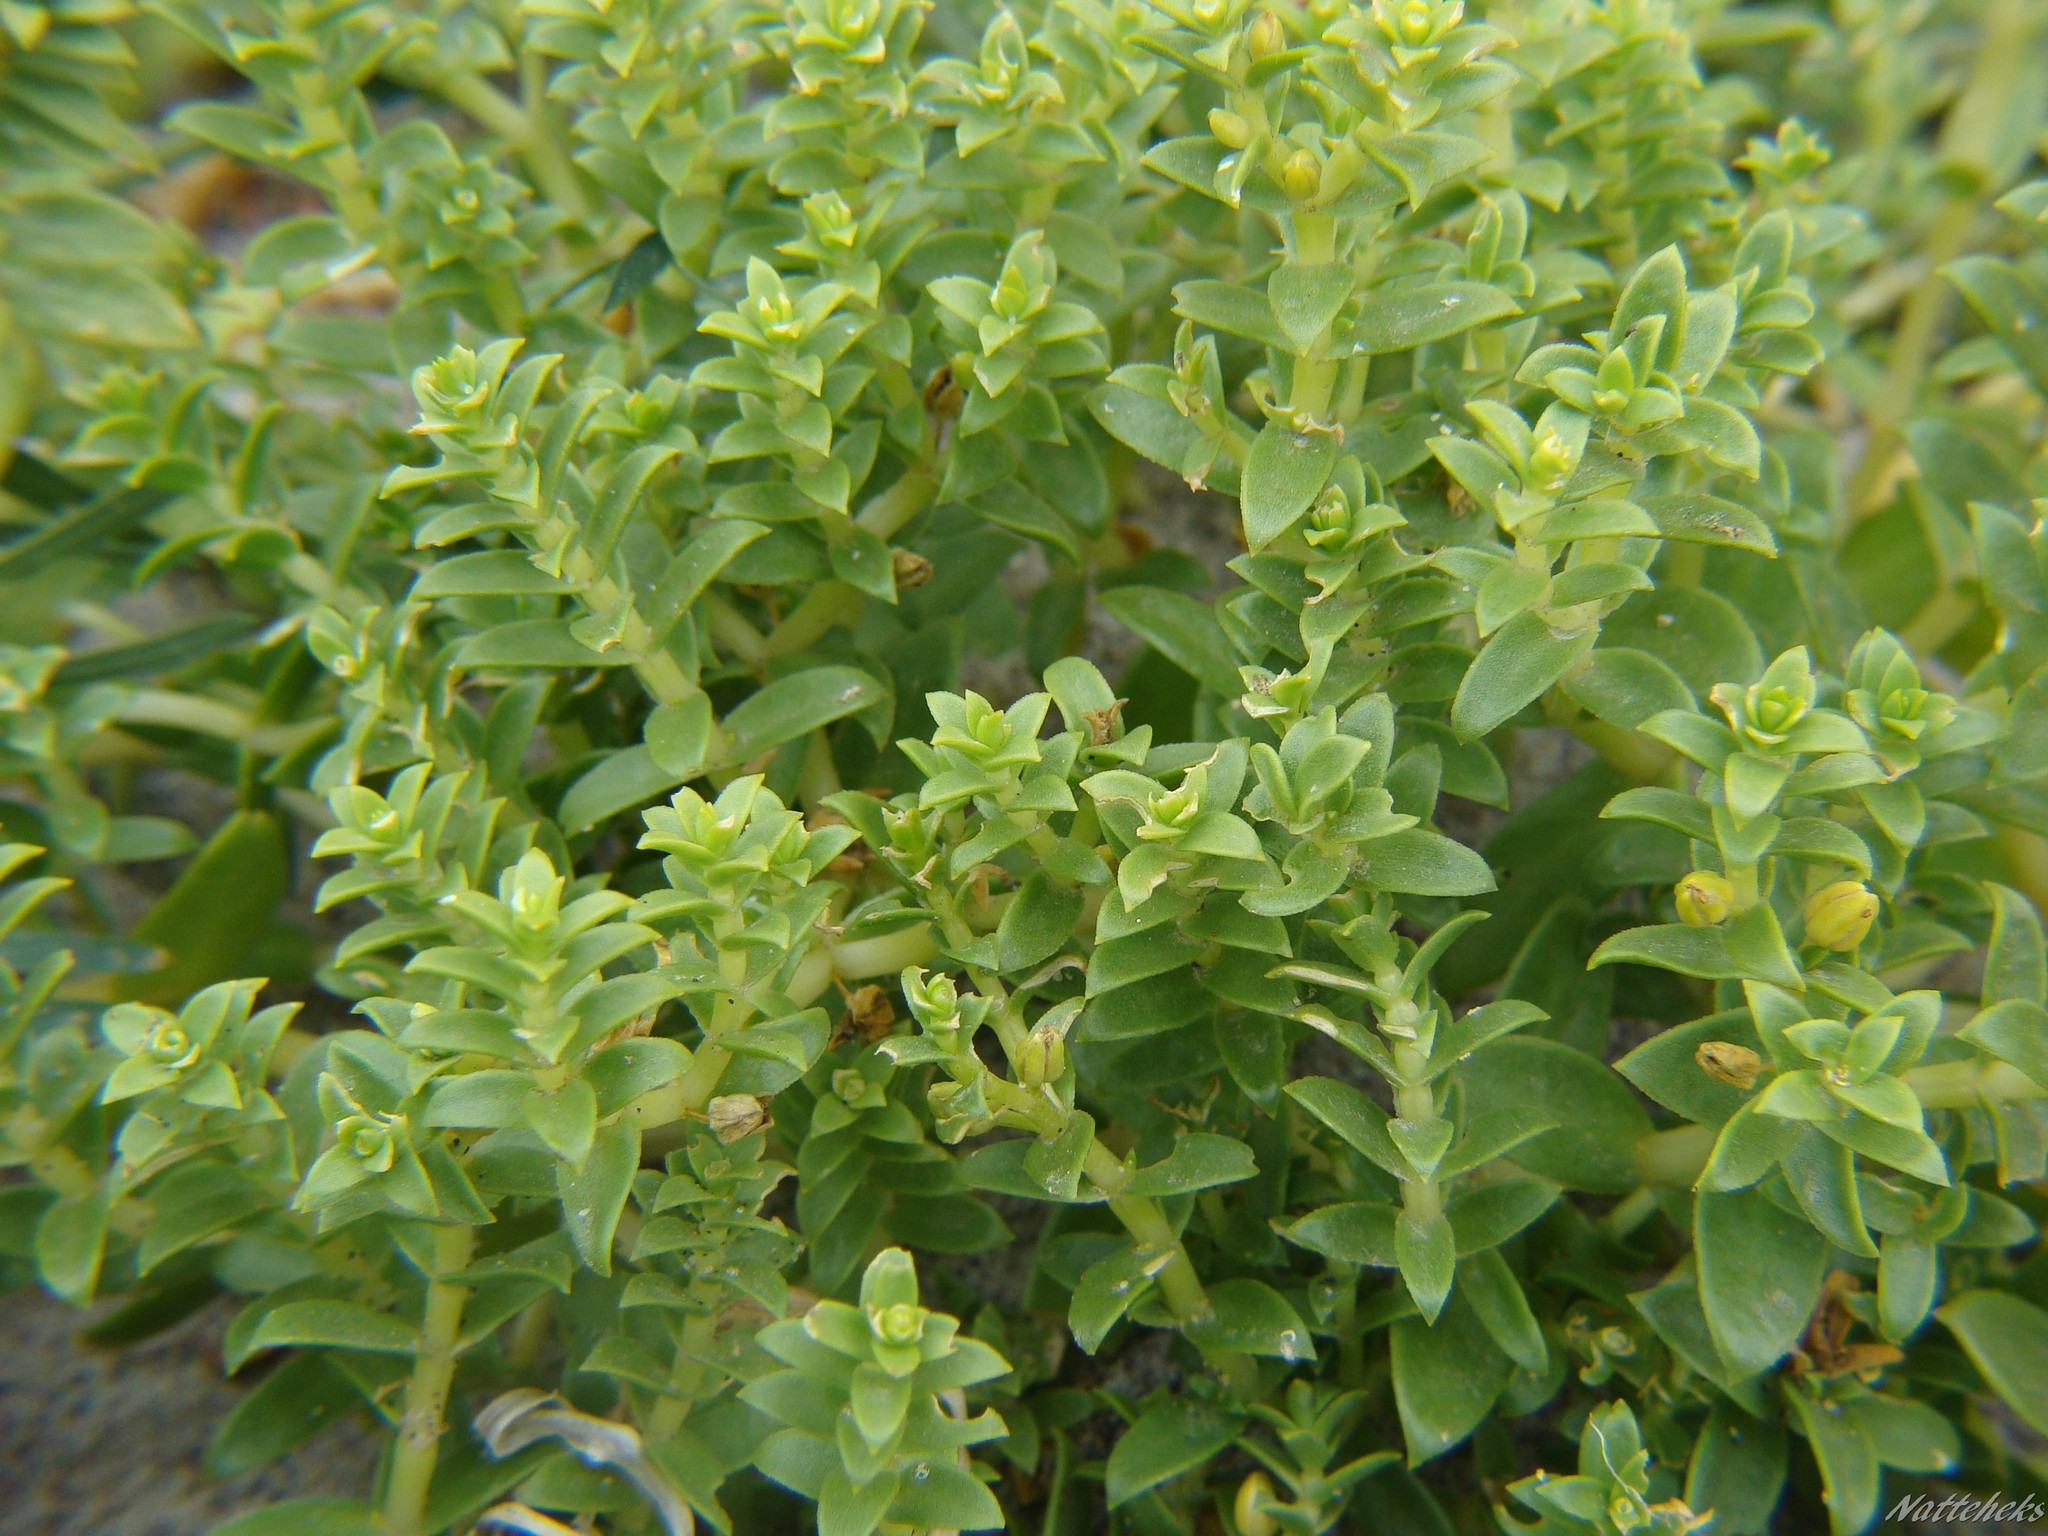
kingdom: Plantae
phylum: Tracheophyta
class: Magnoliopsida
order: Caryophyllales
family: Caryophyllaceae
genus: Honckenya
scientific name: Honckenya peploides
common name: Sea sandwort
